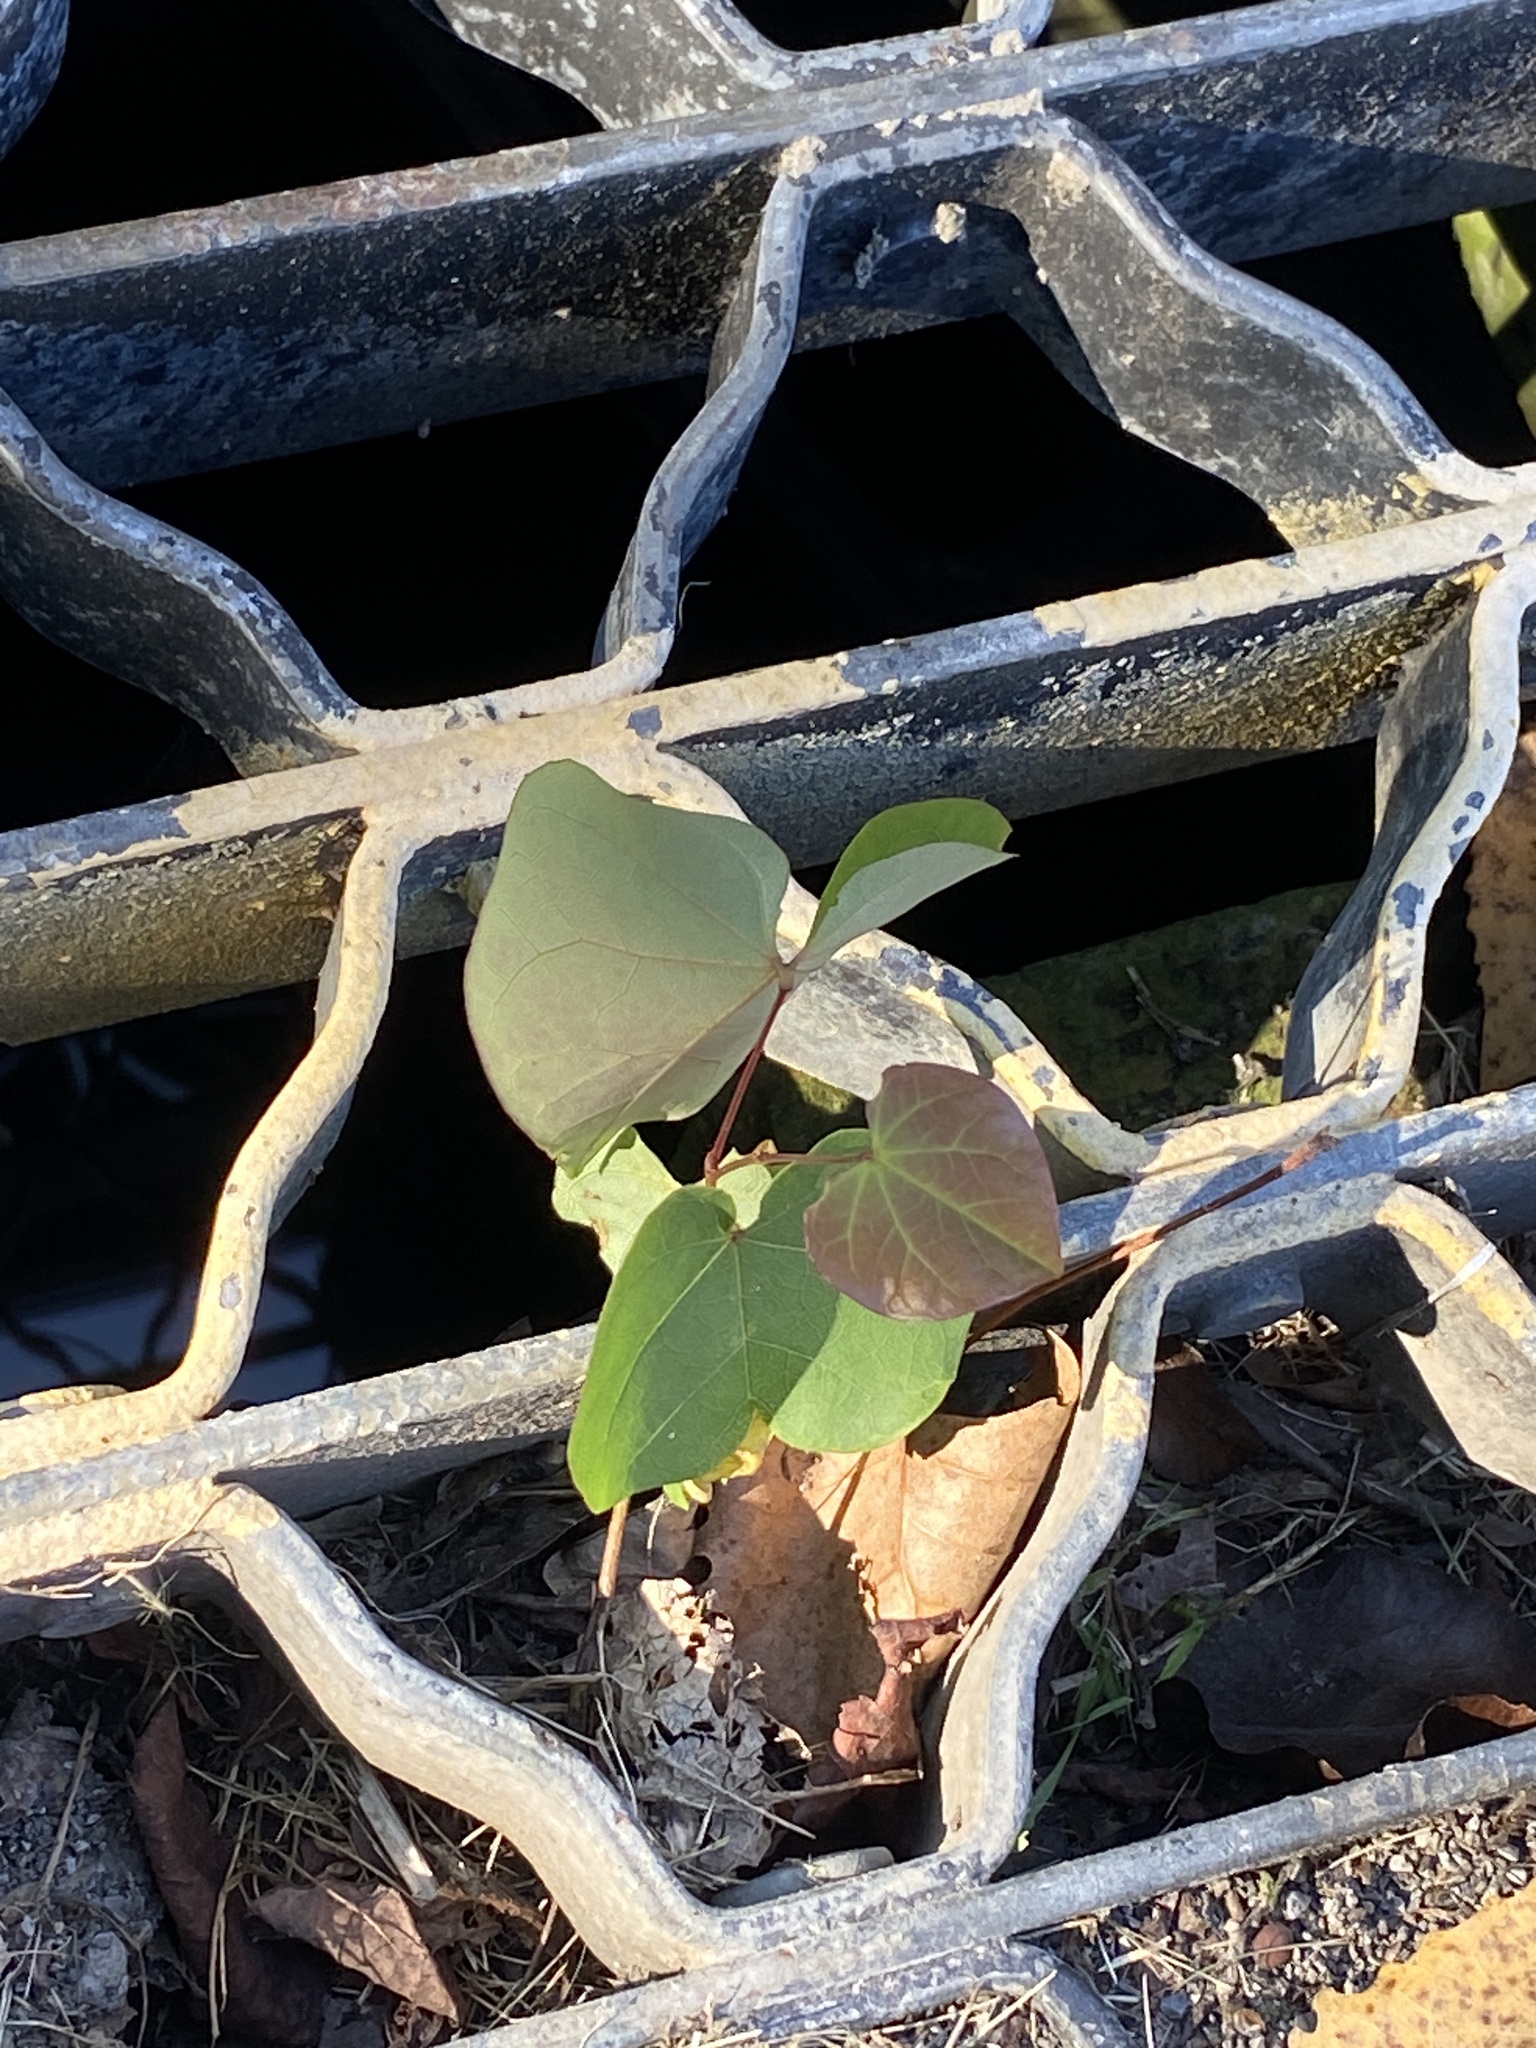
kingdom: Plantae
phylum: Tracheophyta
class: Magnoliopsida
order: Fabales
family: Fabaceae
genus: Cercis
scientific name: Cercis canadensis
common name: Eastern redbud
